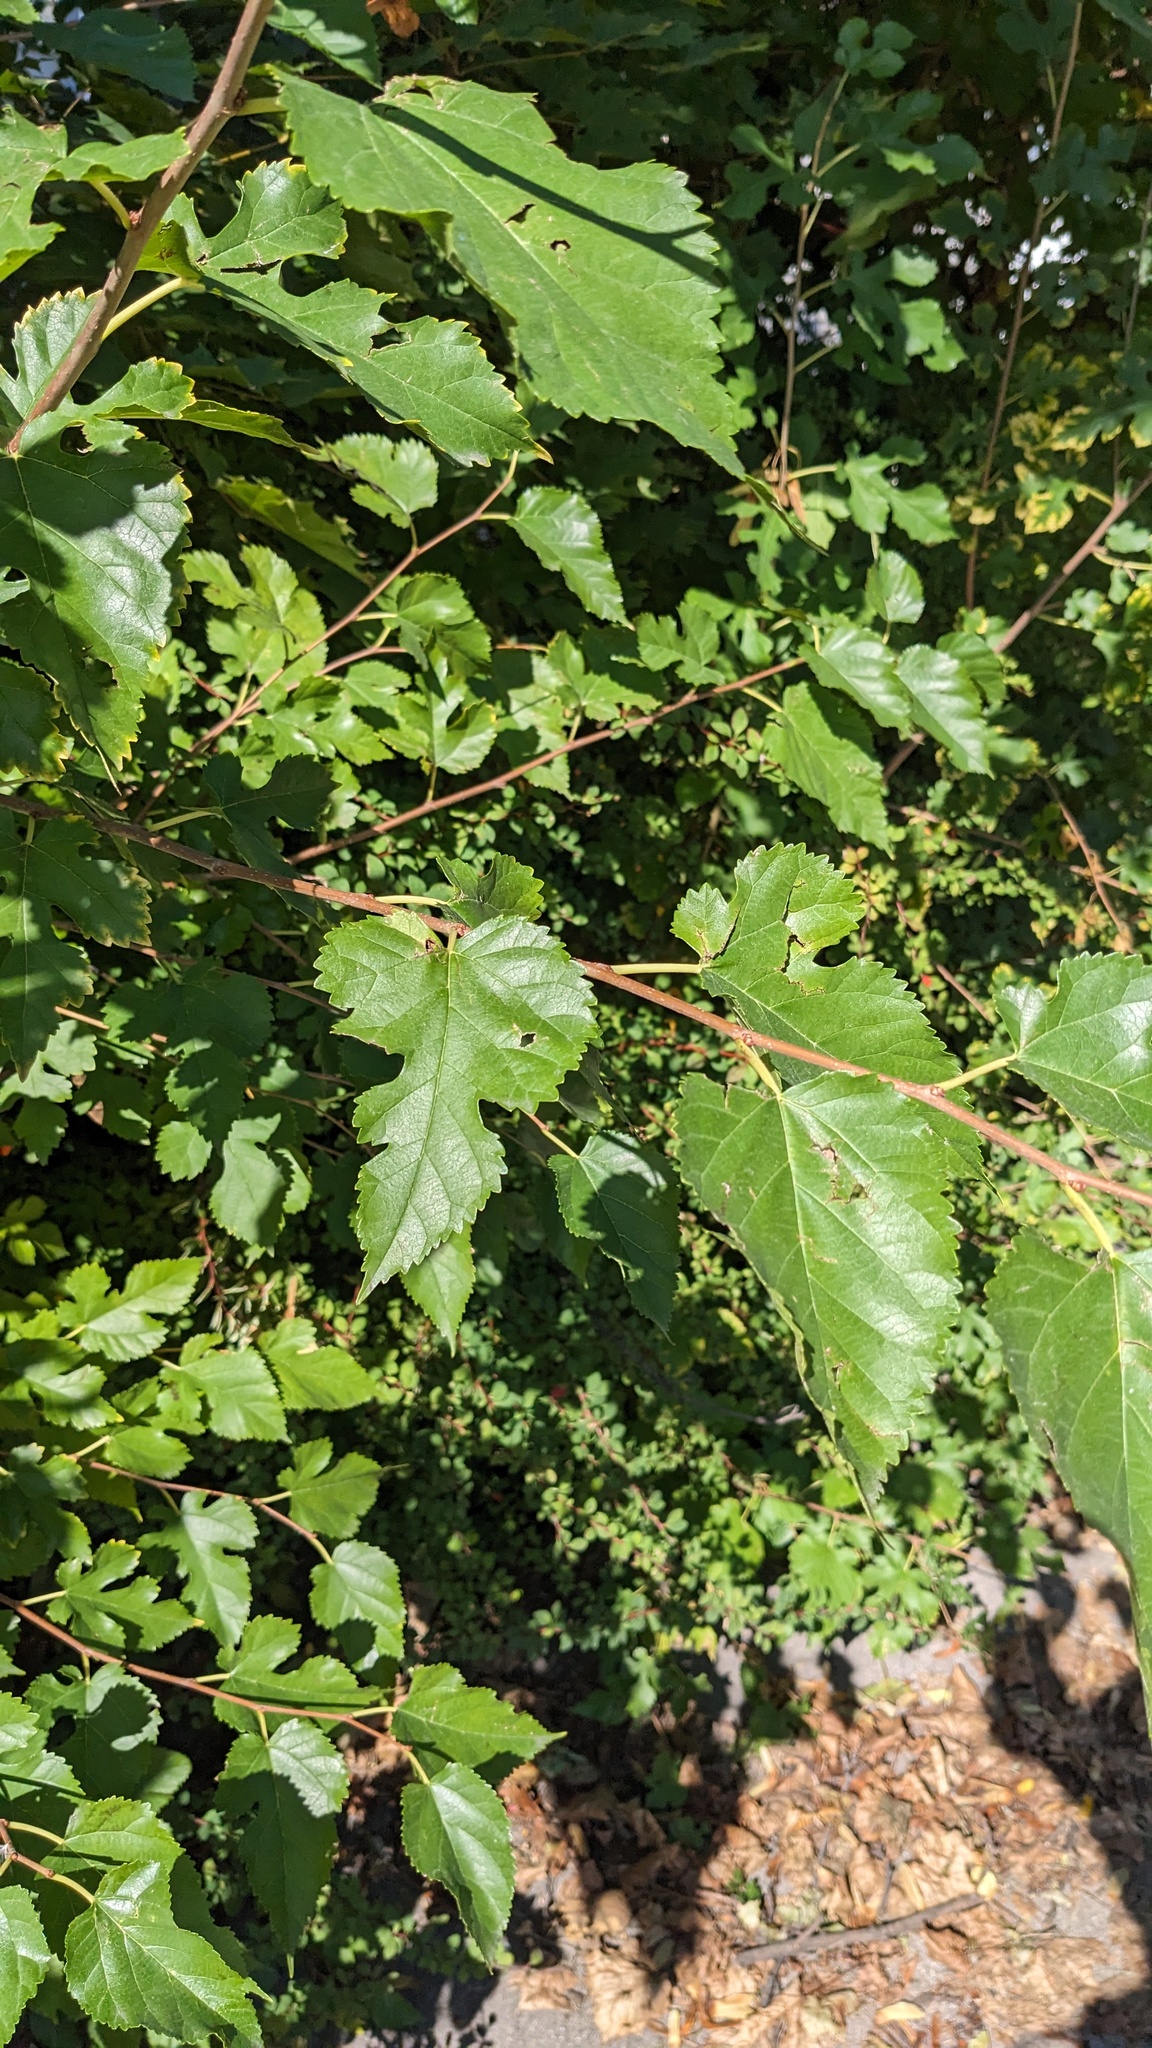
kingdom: Plantae
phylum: Tracheophyta
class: Magnoliopsida
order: Rosales
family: Moraceae
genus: Morus
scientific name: Morus alba
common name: White mulberry
